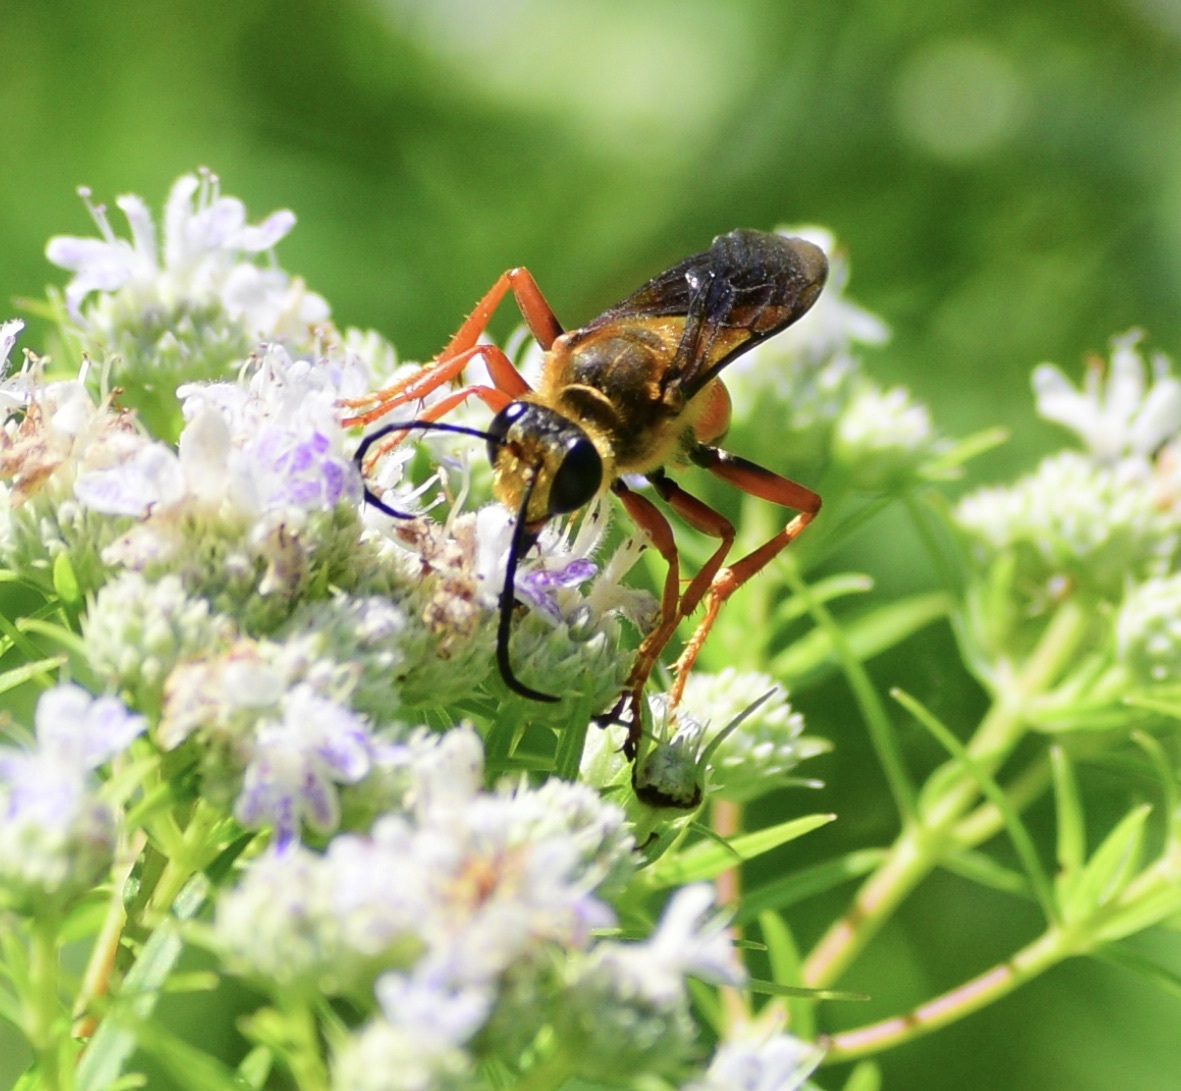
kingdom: Animalia
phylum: Arthropoda
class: Insecta
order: Hymenoptera
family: Sphecidae
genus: Sphex
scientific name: Sphex ichneumoneus
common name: Great golden digger wasp
